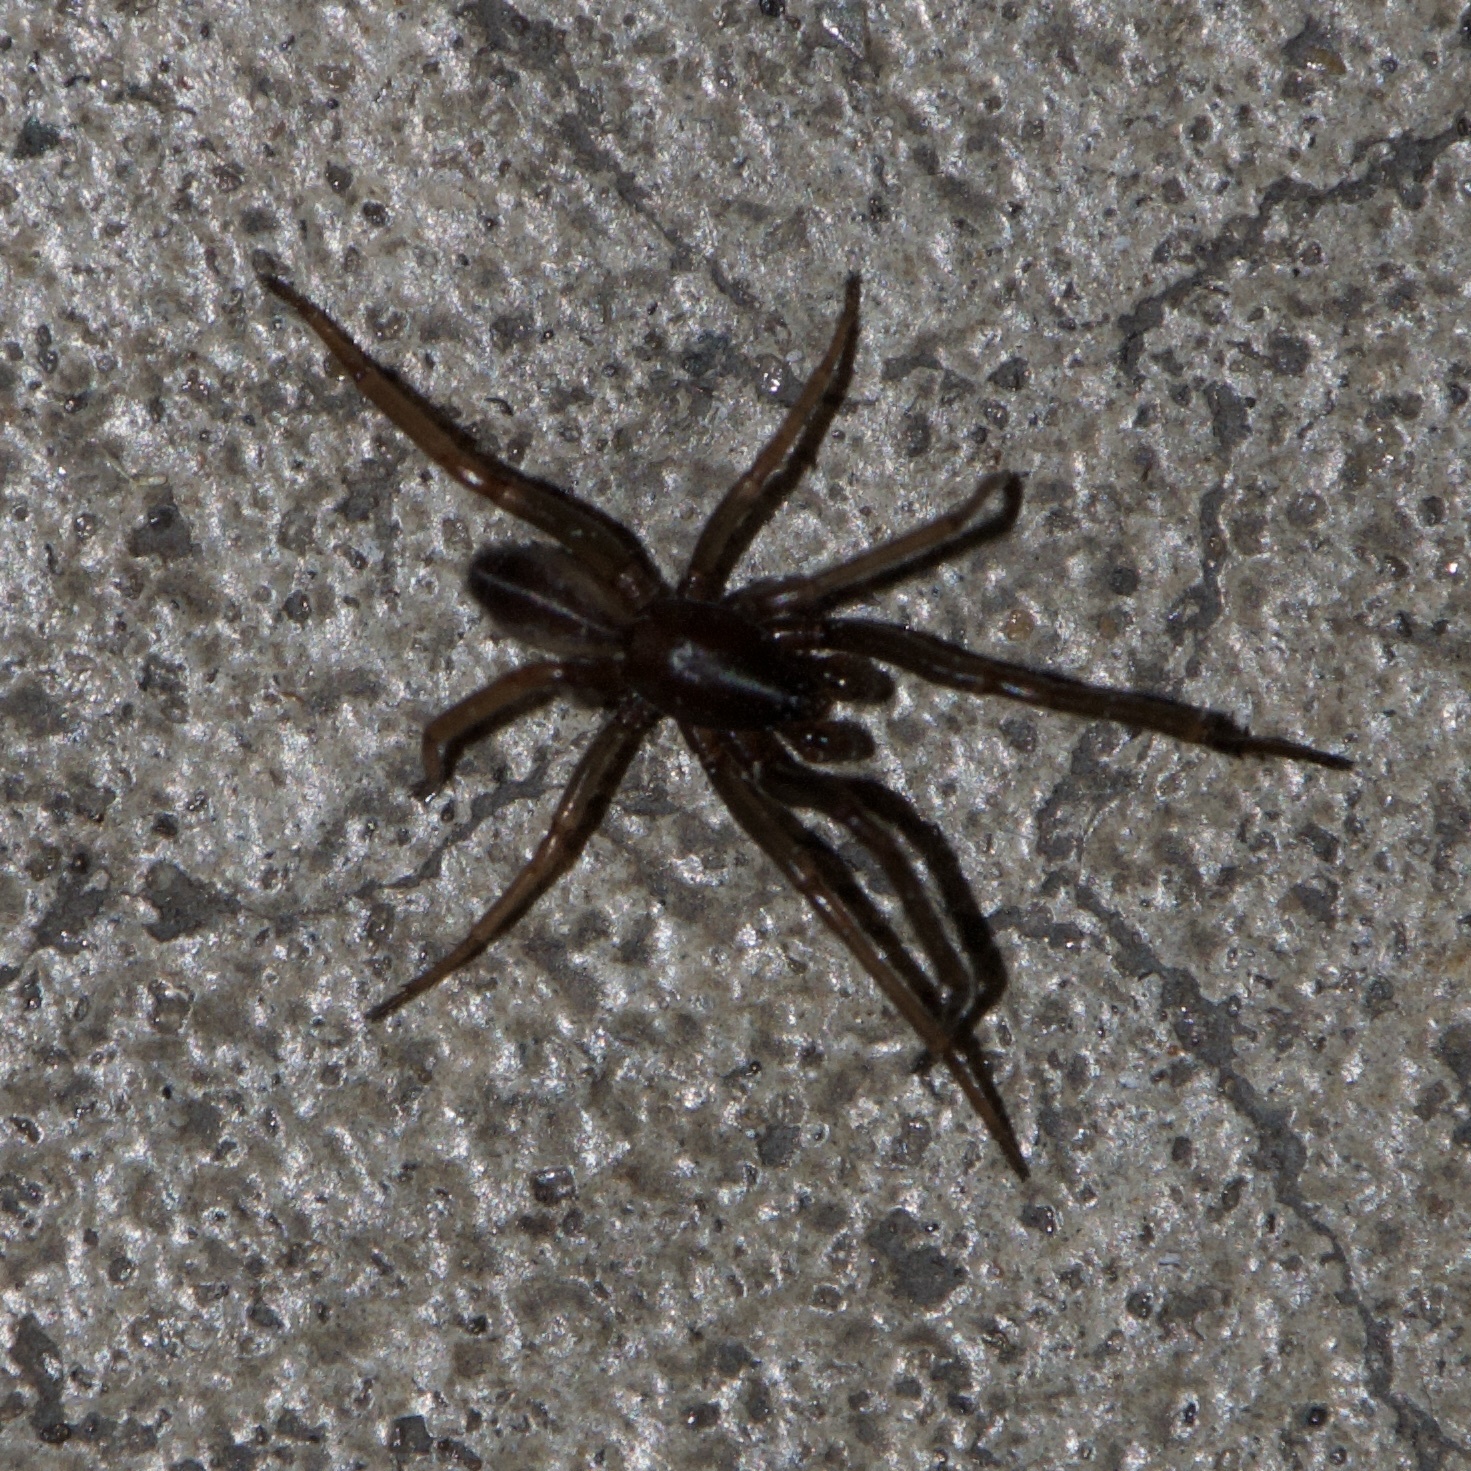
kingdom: Animalia
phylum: Arthropoda
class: Arachnida
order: Araneae
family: Segestriidae
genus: Ariadna
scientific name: Ariadna bicolor
